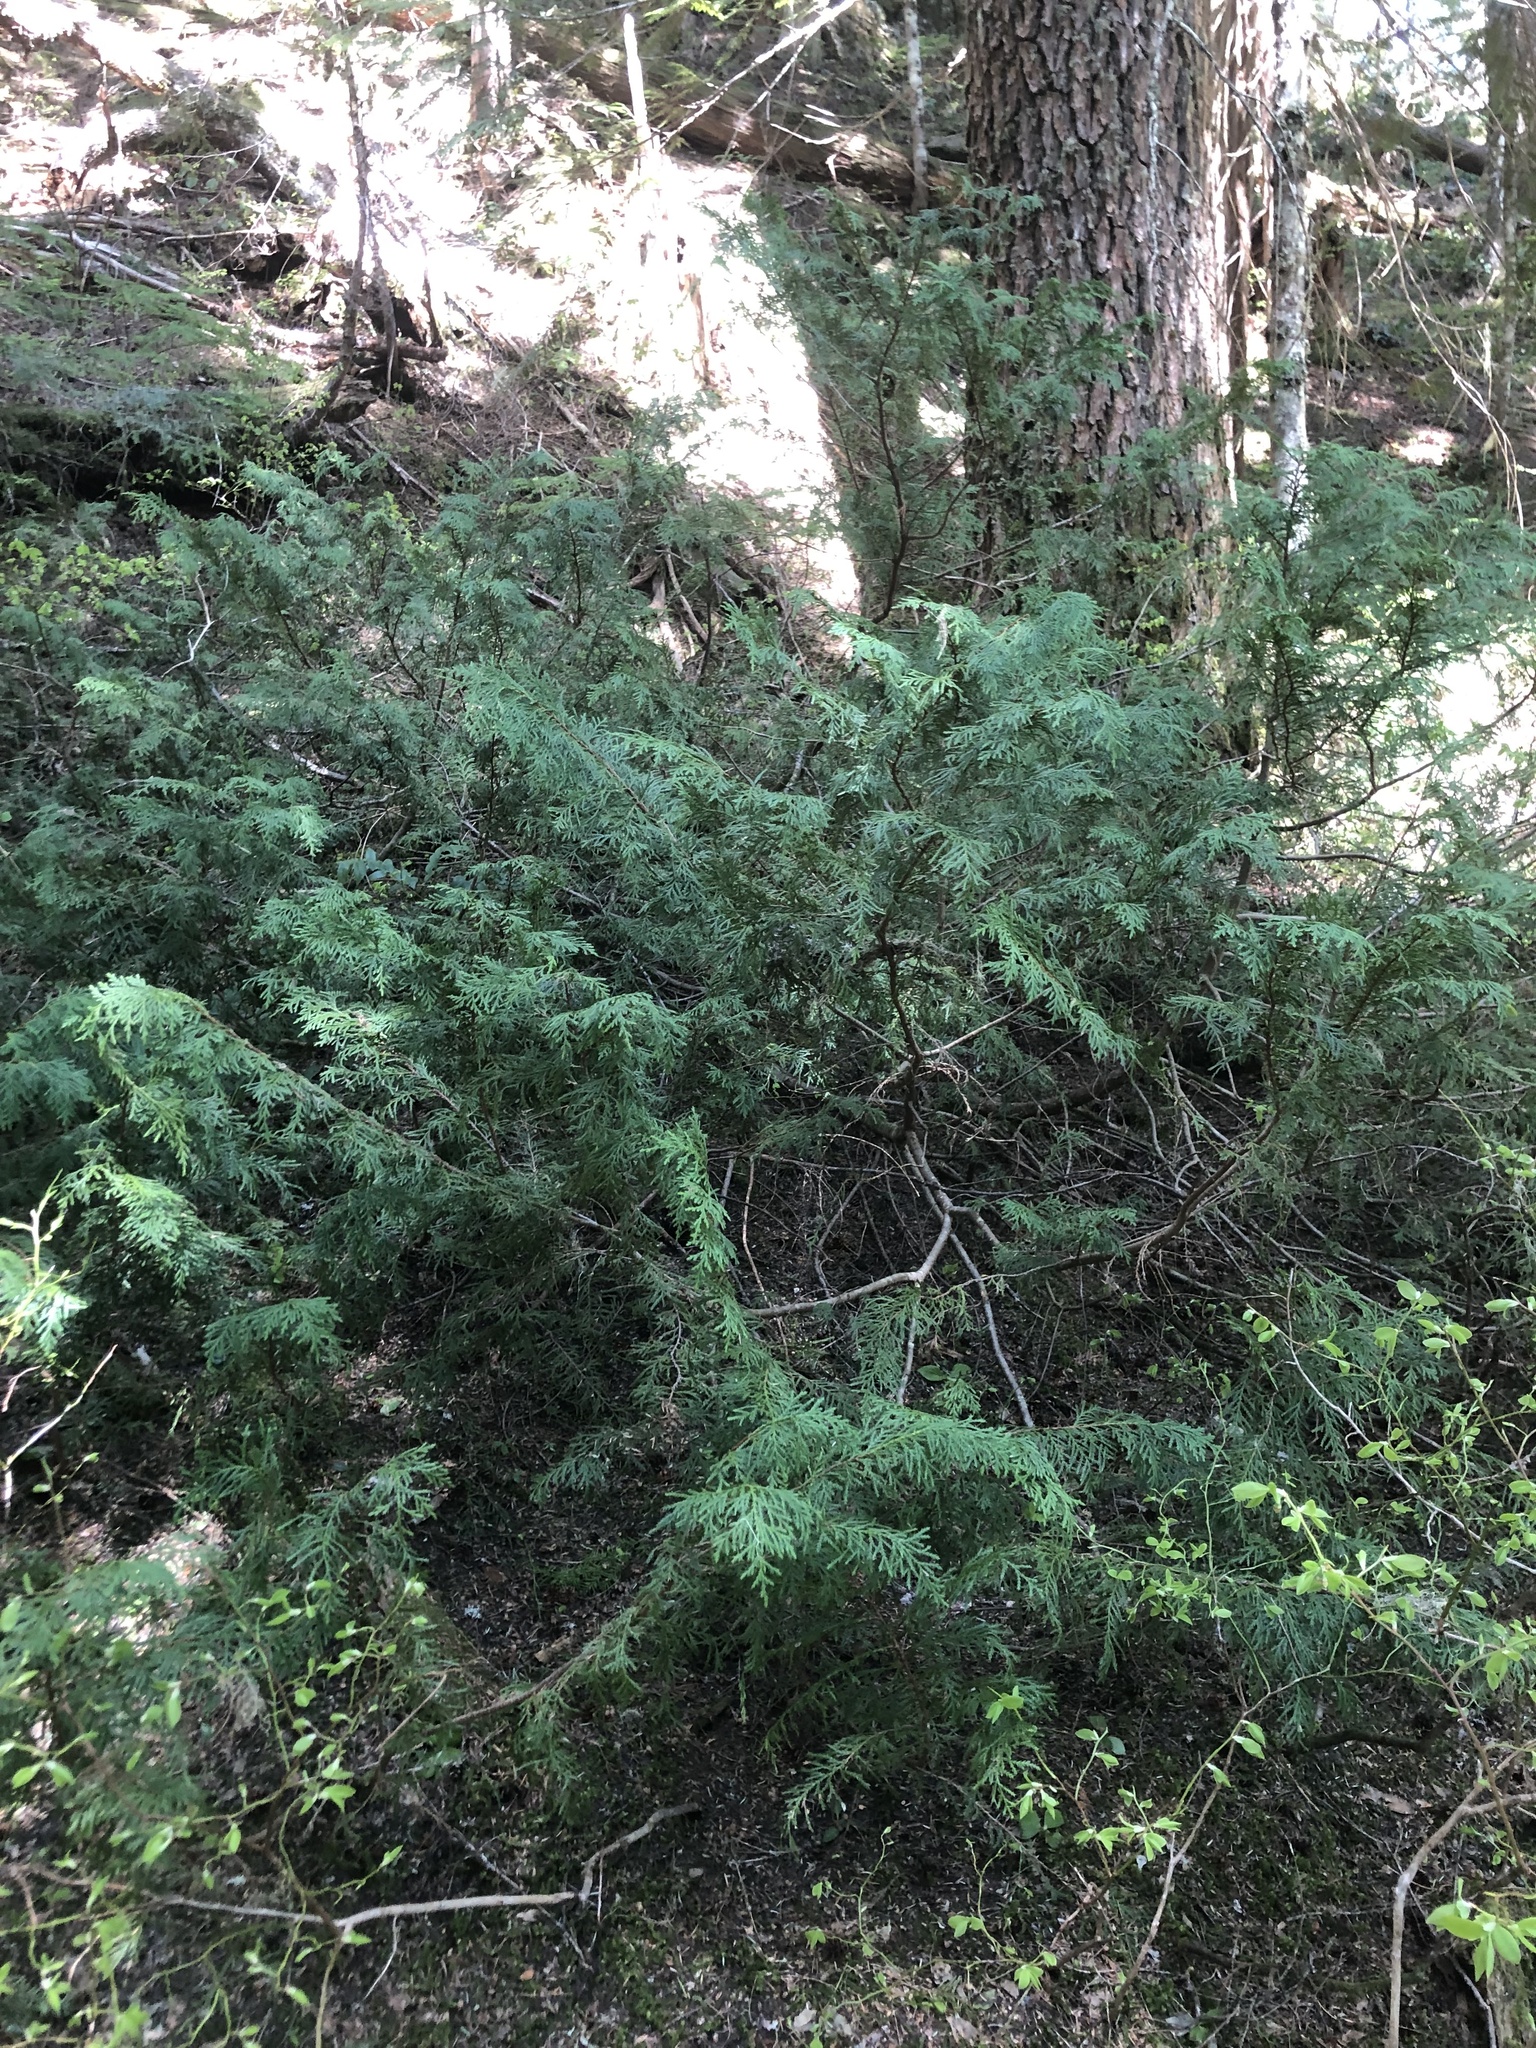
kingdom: Plantae
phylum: Tracheophyta
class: Pinopsida
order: Pinales
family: Cupressaceae
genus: Xanthocyparis
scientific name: Xanthocyparis nootkatensis
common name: Nootka cypress
